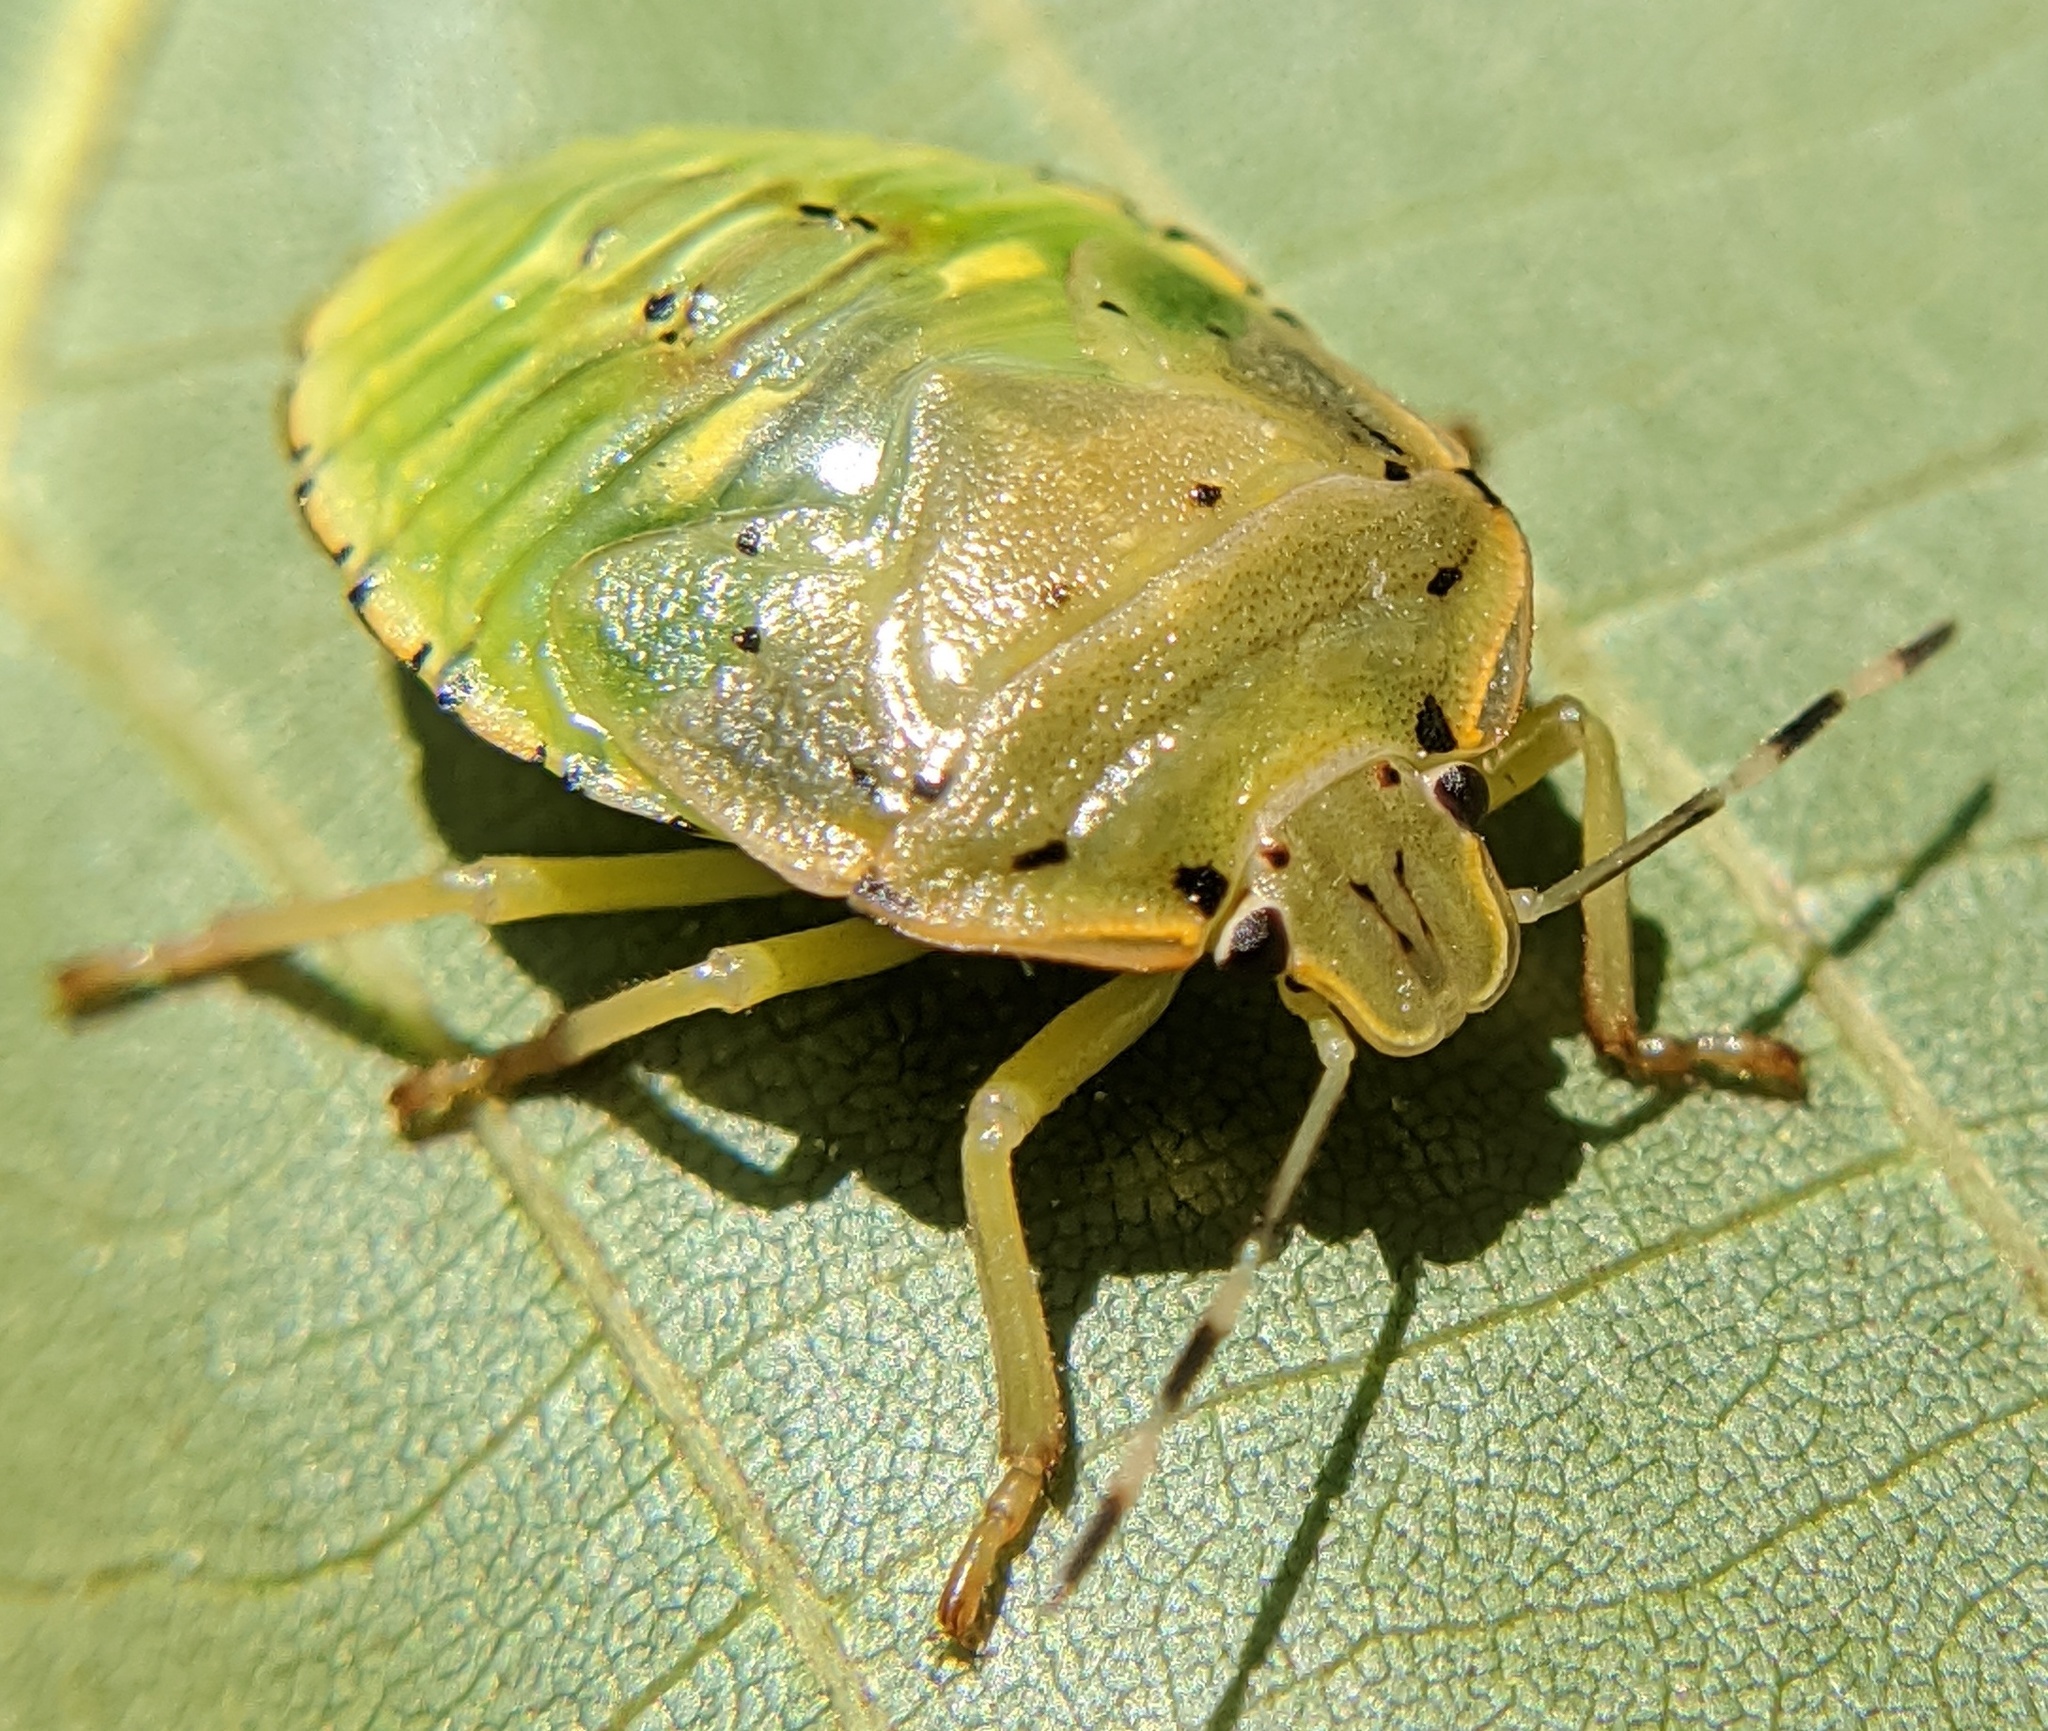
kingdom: Animalia
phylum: Arthropoda
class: Insecta
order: Hemiptera
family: Pentatomidae
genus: Chinavia
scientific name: Chinavia hilaris
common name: Green stink bug
